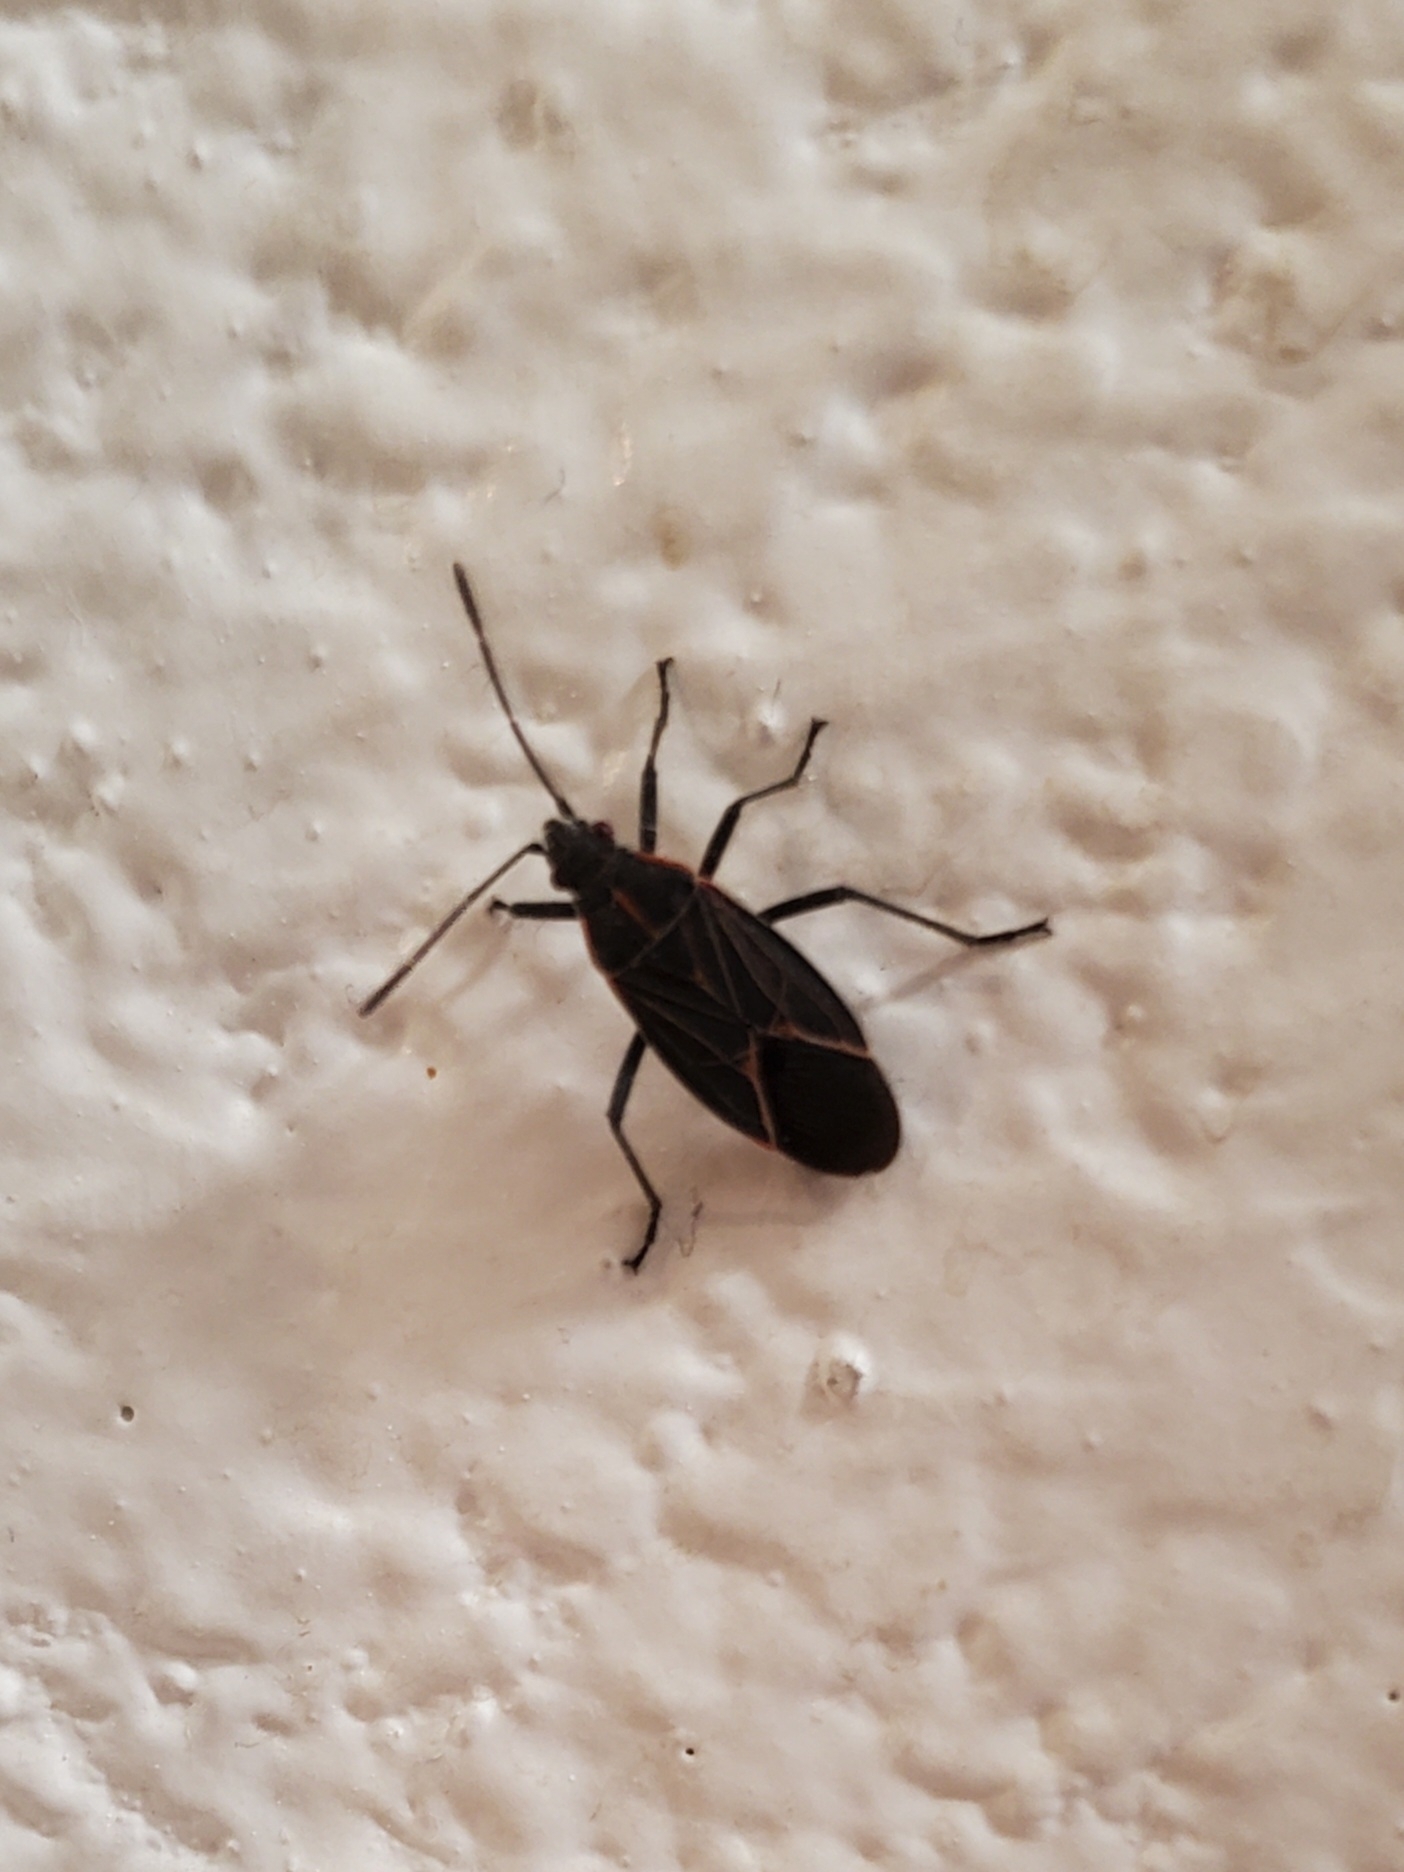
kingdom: Animalia
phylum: Arthropoda
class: Insecta
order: Hemiptera
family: Rhopalidae
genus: Boisea
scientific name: Boisea rubrolineata
